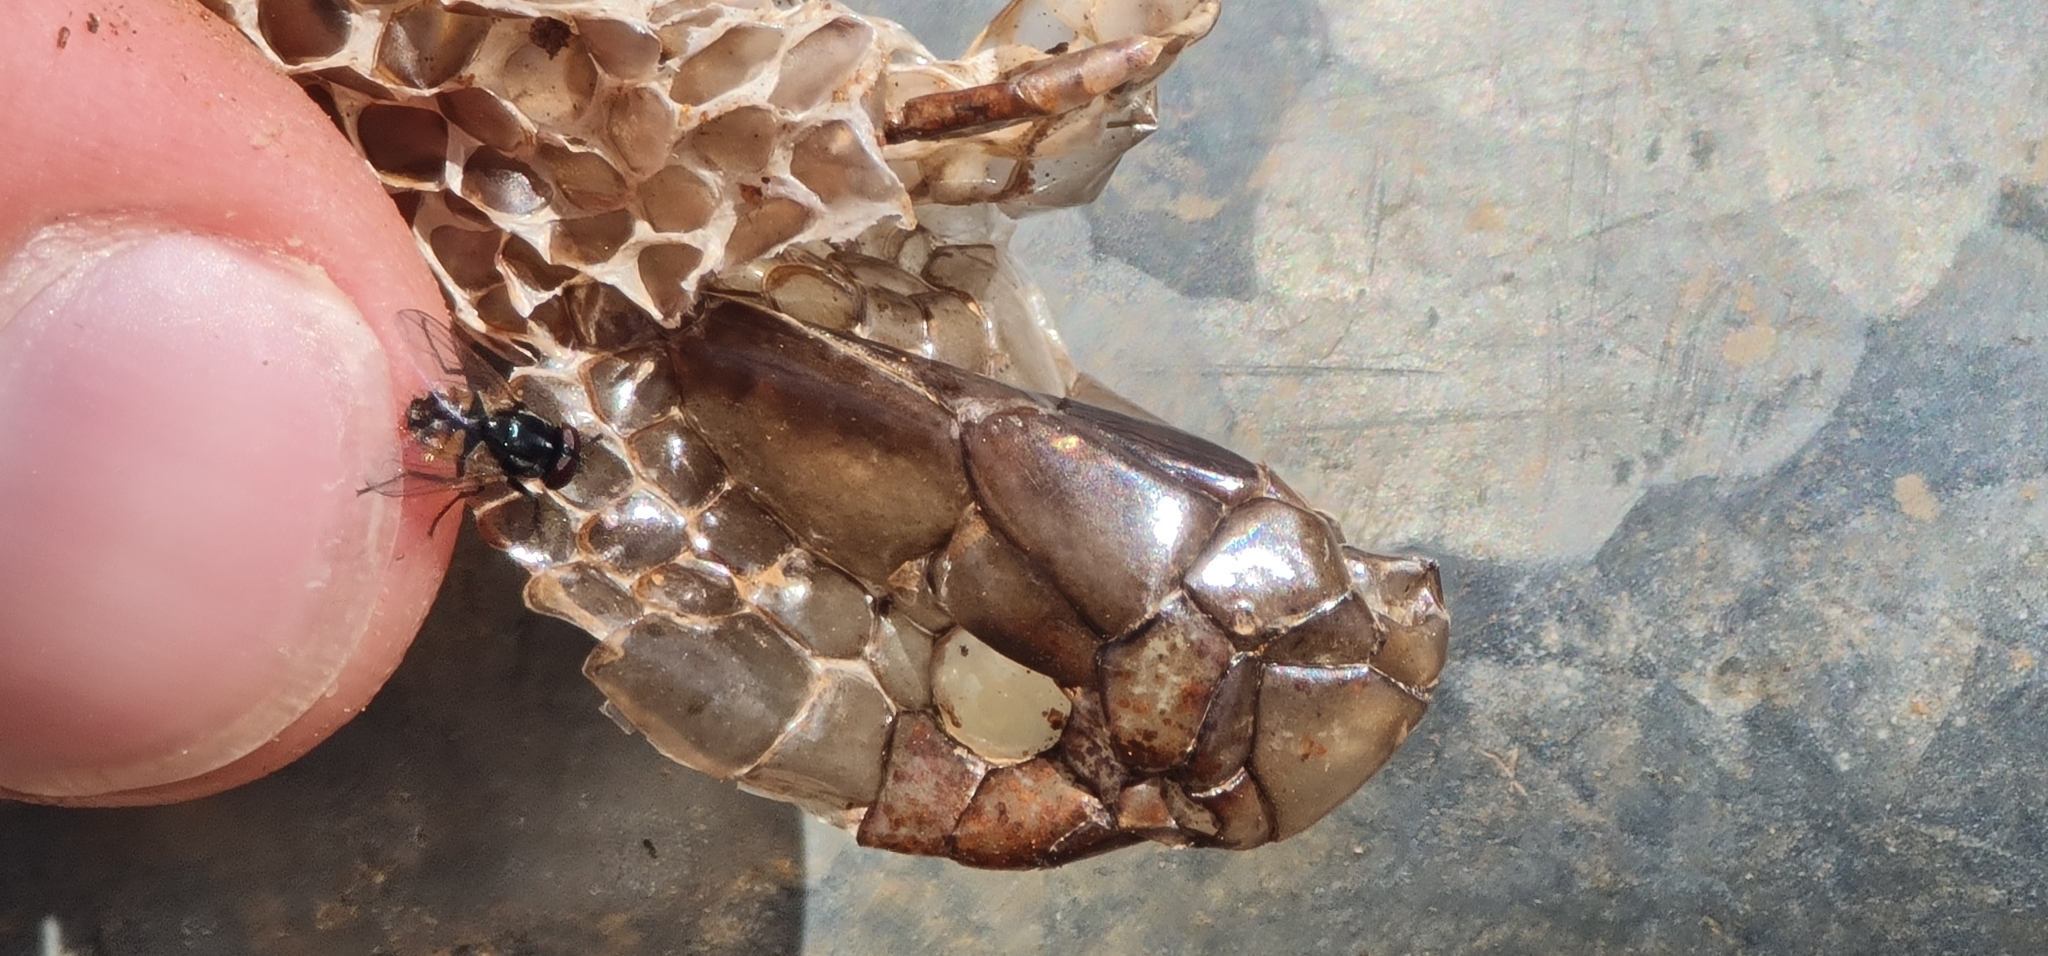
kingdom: Animalia
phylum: Chordata
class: Squamata
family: Elapidae
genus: Pseudonaja
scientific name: Pseudonaja aspidorhyncha
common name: Strap-snouted brown snake
